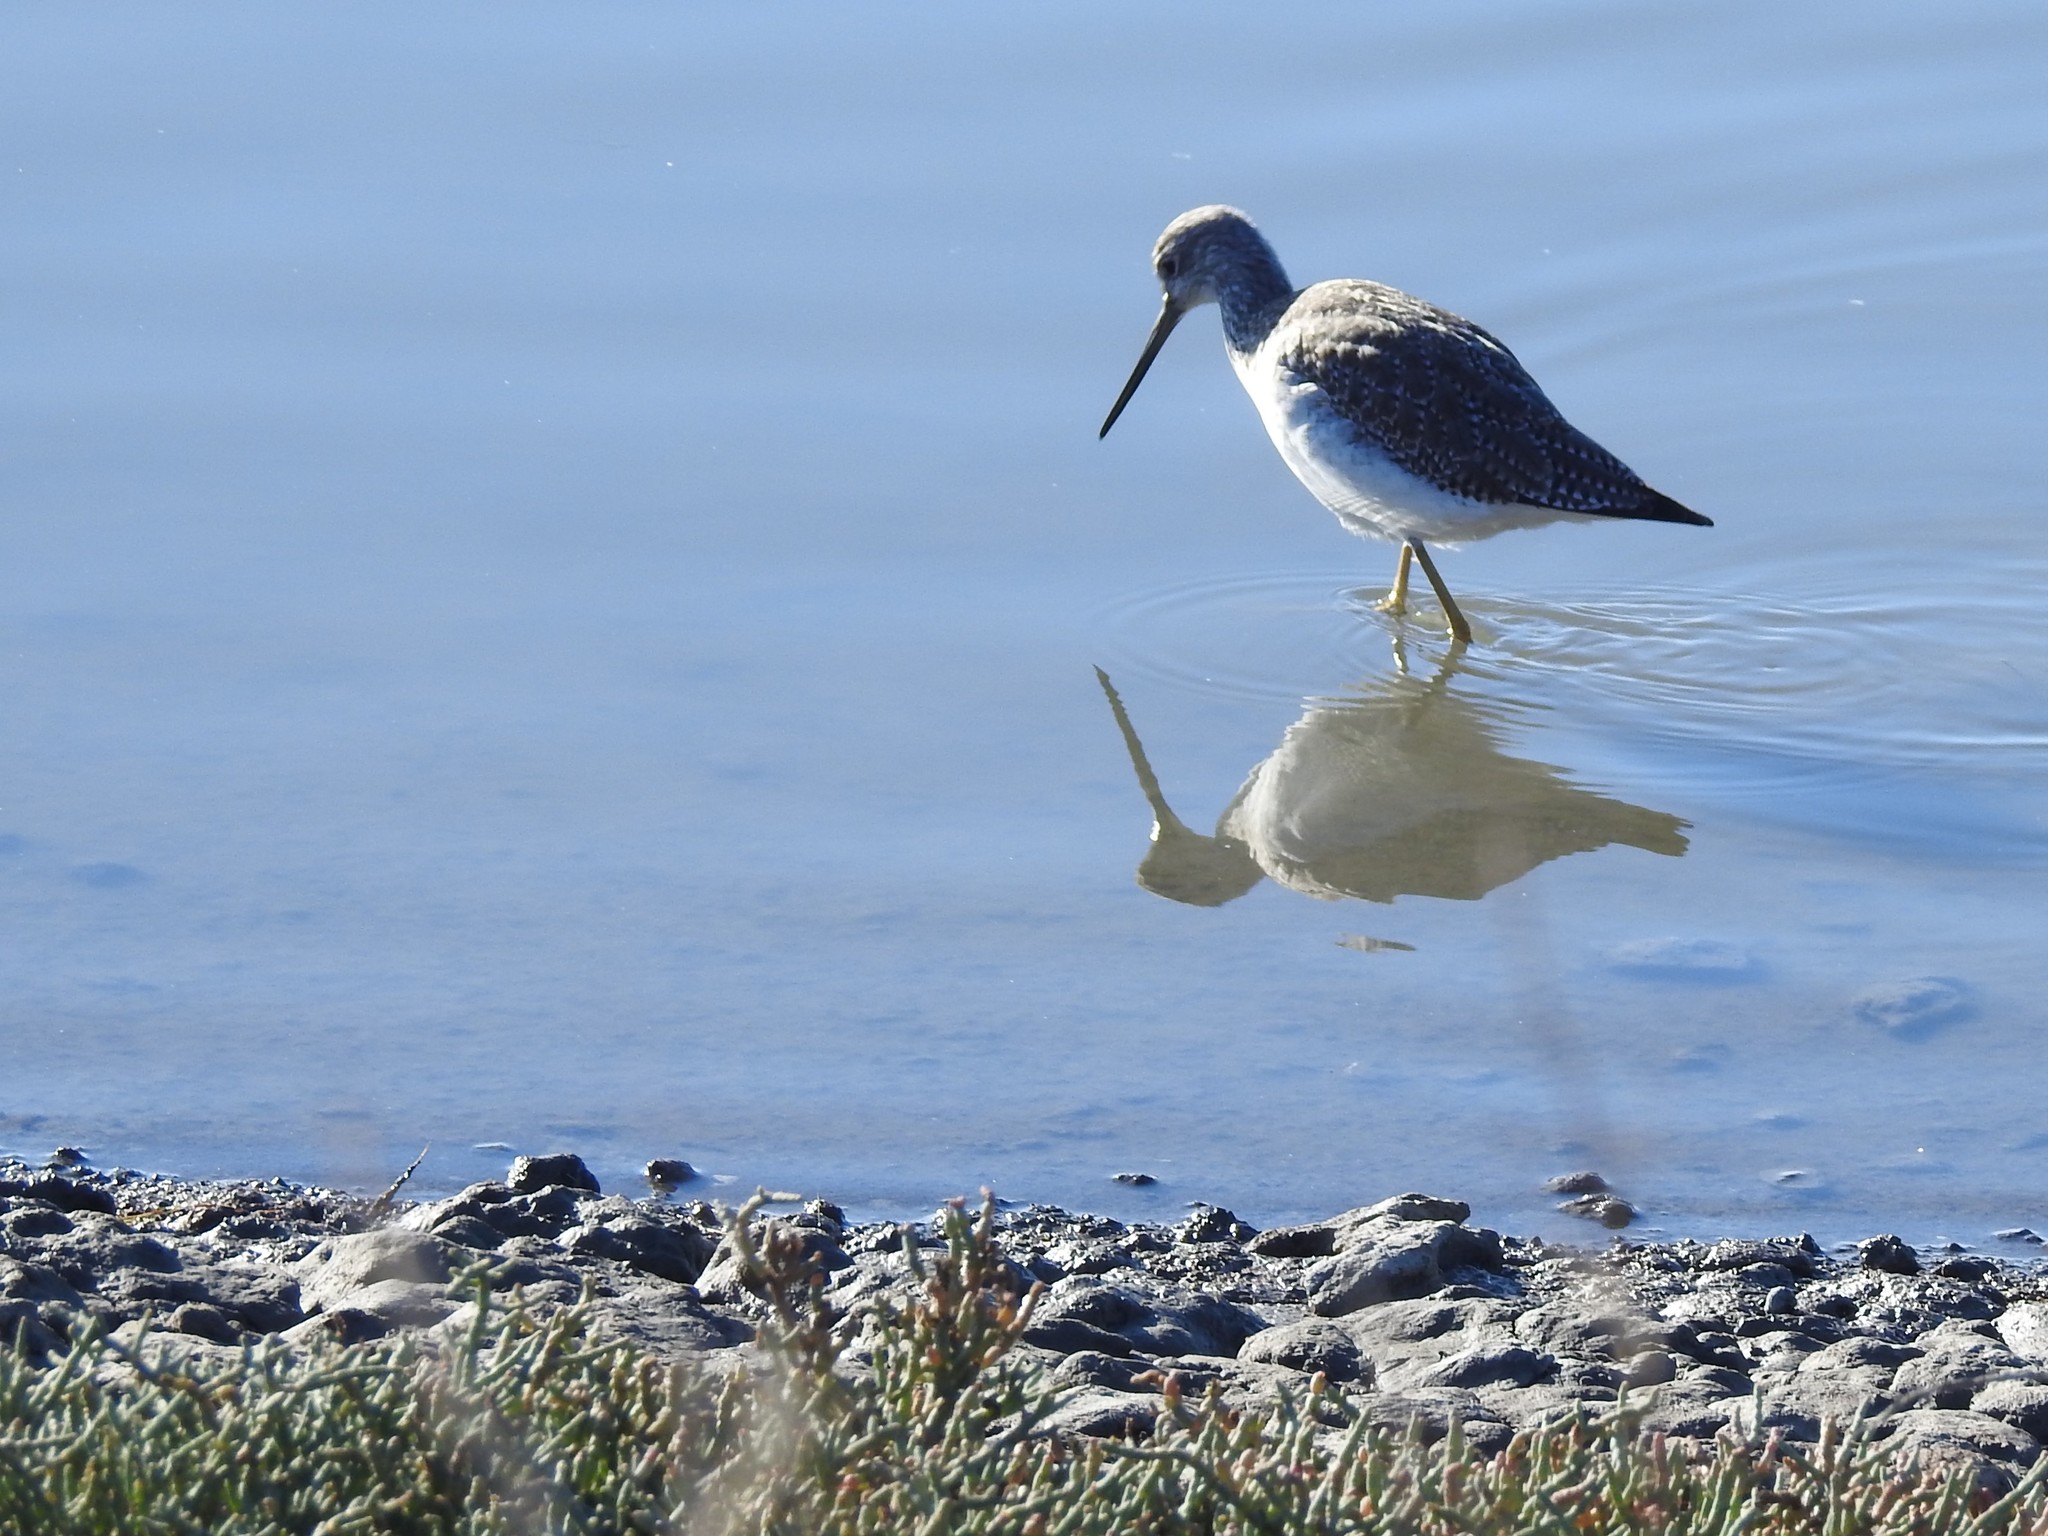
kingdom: Animalia
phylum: Chordata
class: Aves
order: Charadriiformes
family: Scolopacidae
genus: Tringa
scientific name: Tringa melanoleuca
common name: Greater yellowlegs
